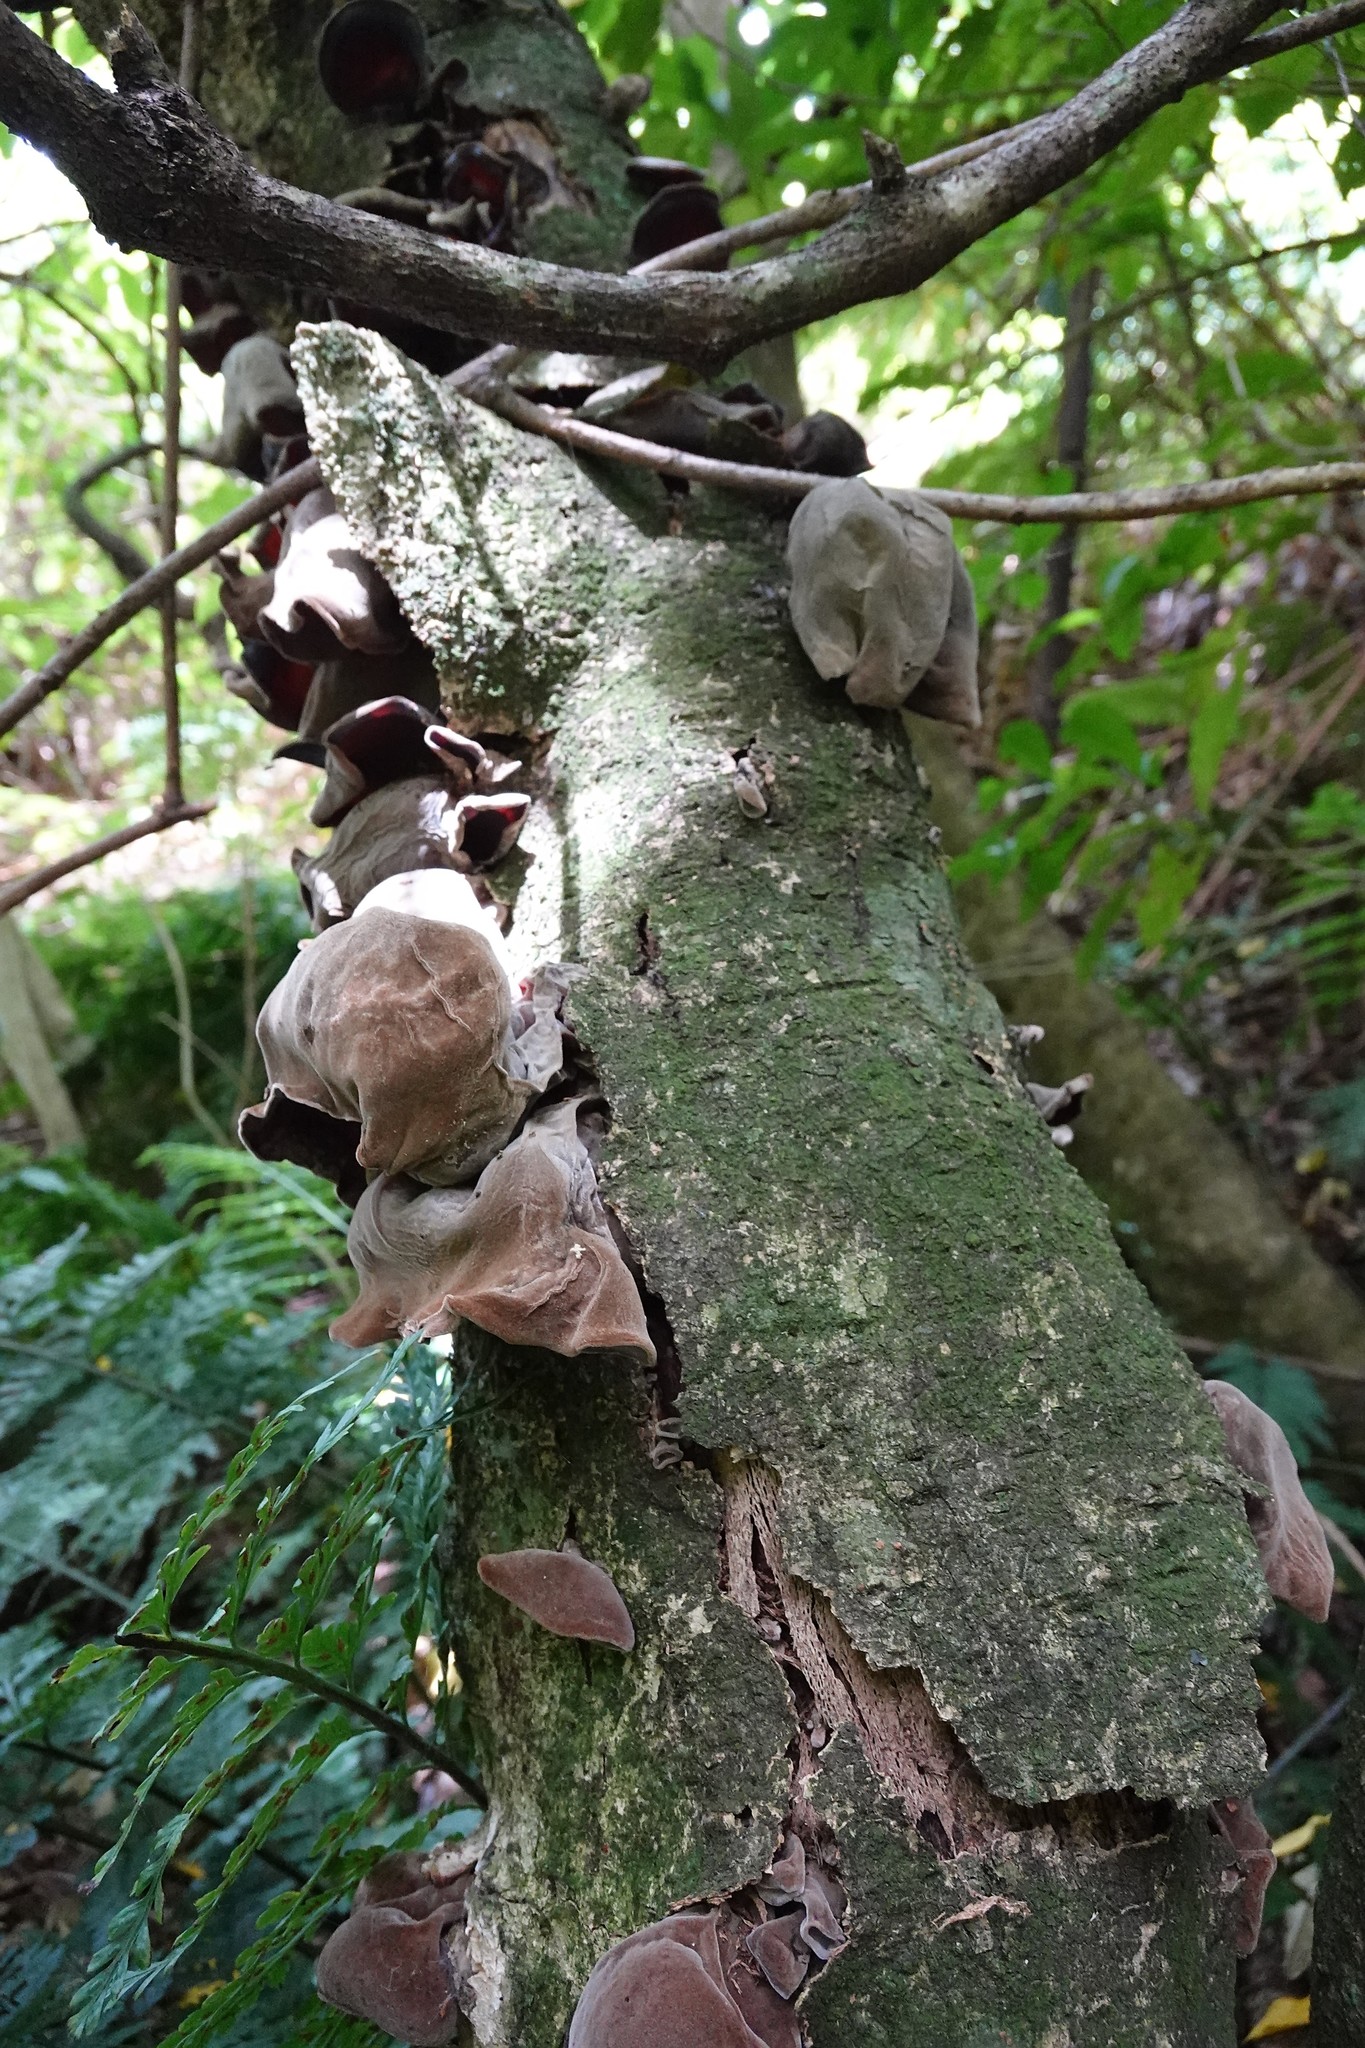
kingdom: Fungi
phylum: Basidiomycota
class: Agaricomycetes
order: Auriculariales
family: Auriculariaceae
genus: Auricularia
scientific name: Auricularia cornea
